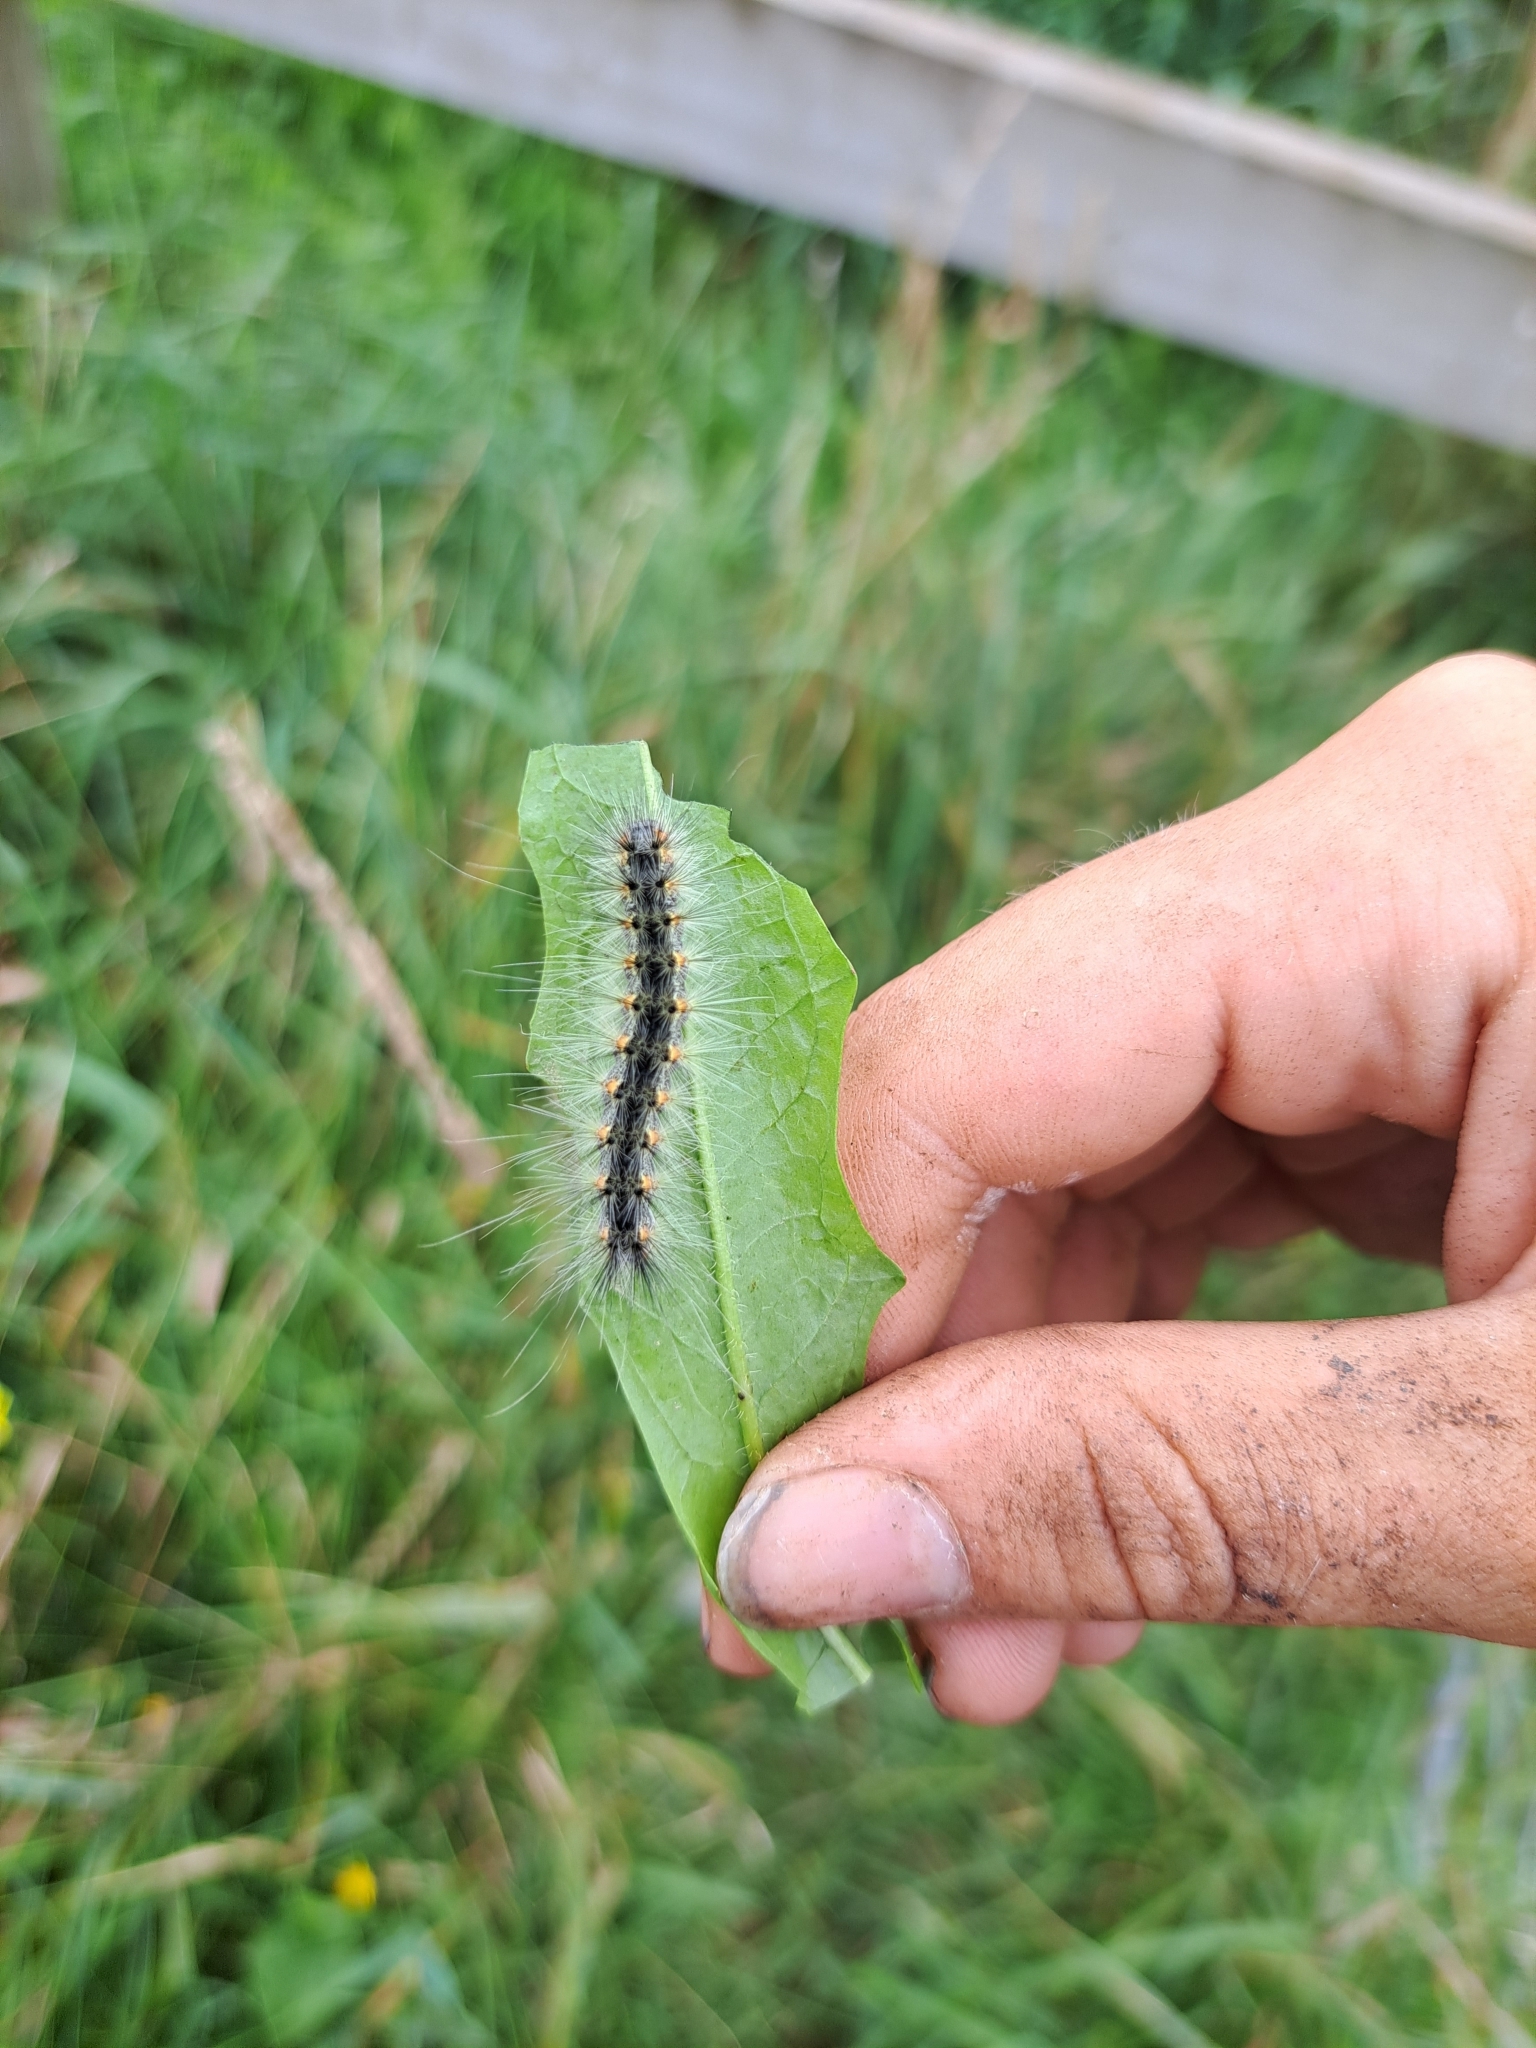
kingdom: Animalia
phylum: Arthropoda
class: Insecta
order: Lepidoptera
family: Erebidae
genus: Hyphantria
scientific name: Hyphantria cunea
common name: American white moth
